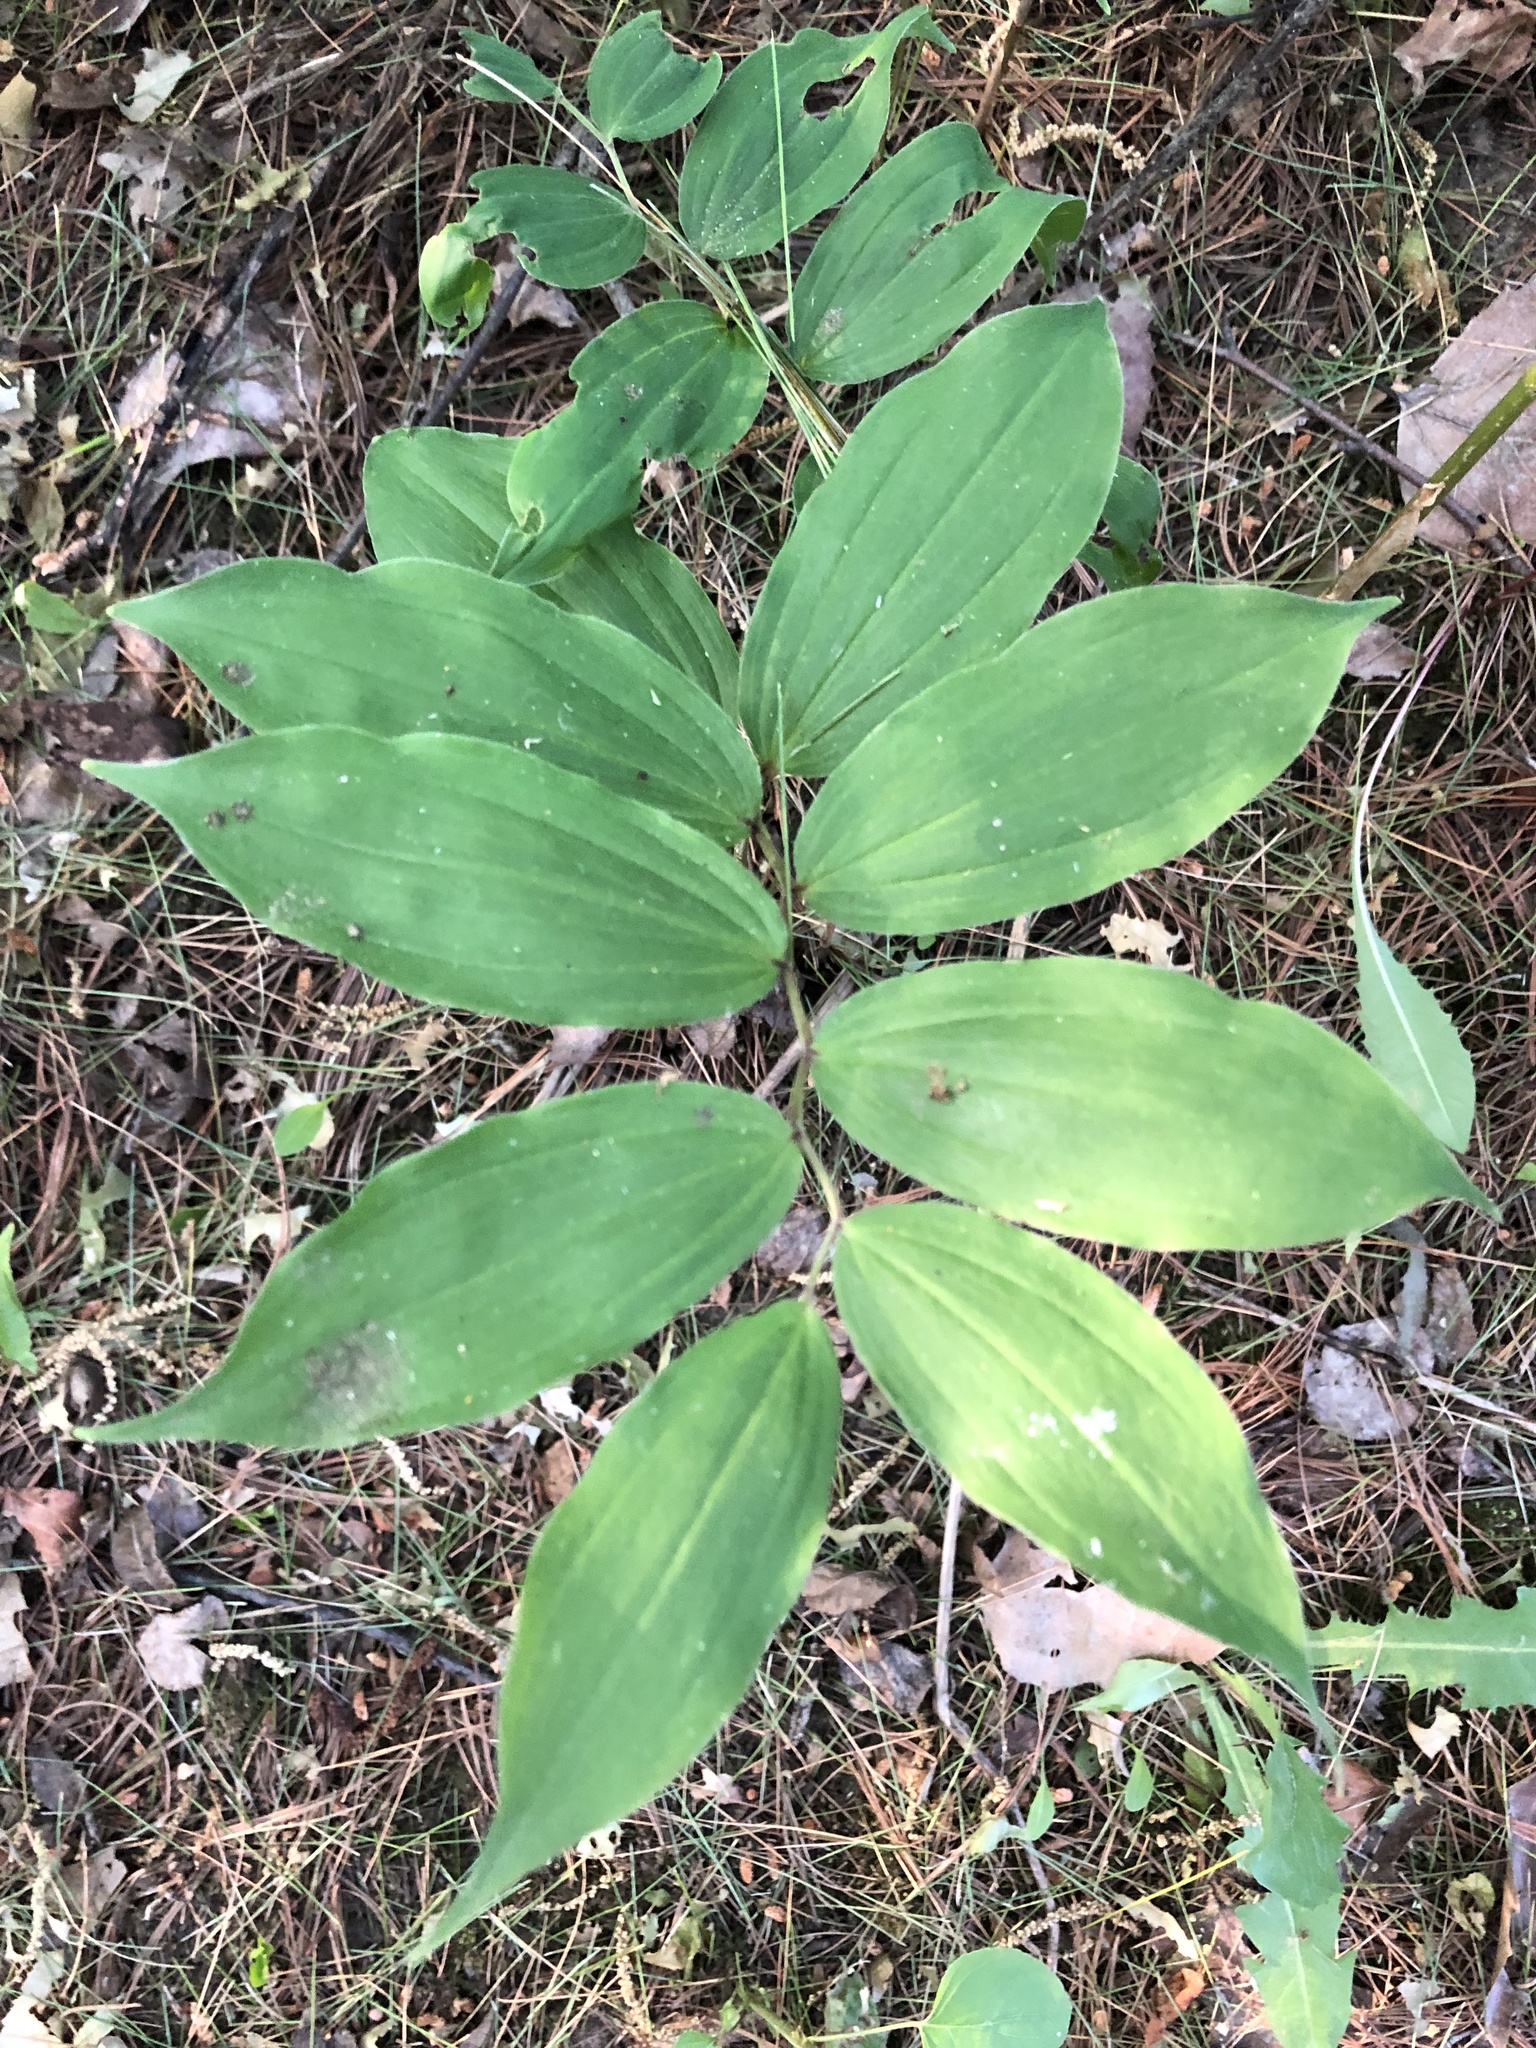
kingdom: Plantae
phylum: Tracheophyta
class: Liliopsida
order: Asparagales
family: Asparagaceae
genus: Maianthemum
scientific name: Maianthemum racemosum
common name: False spikenard
